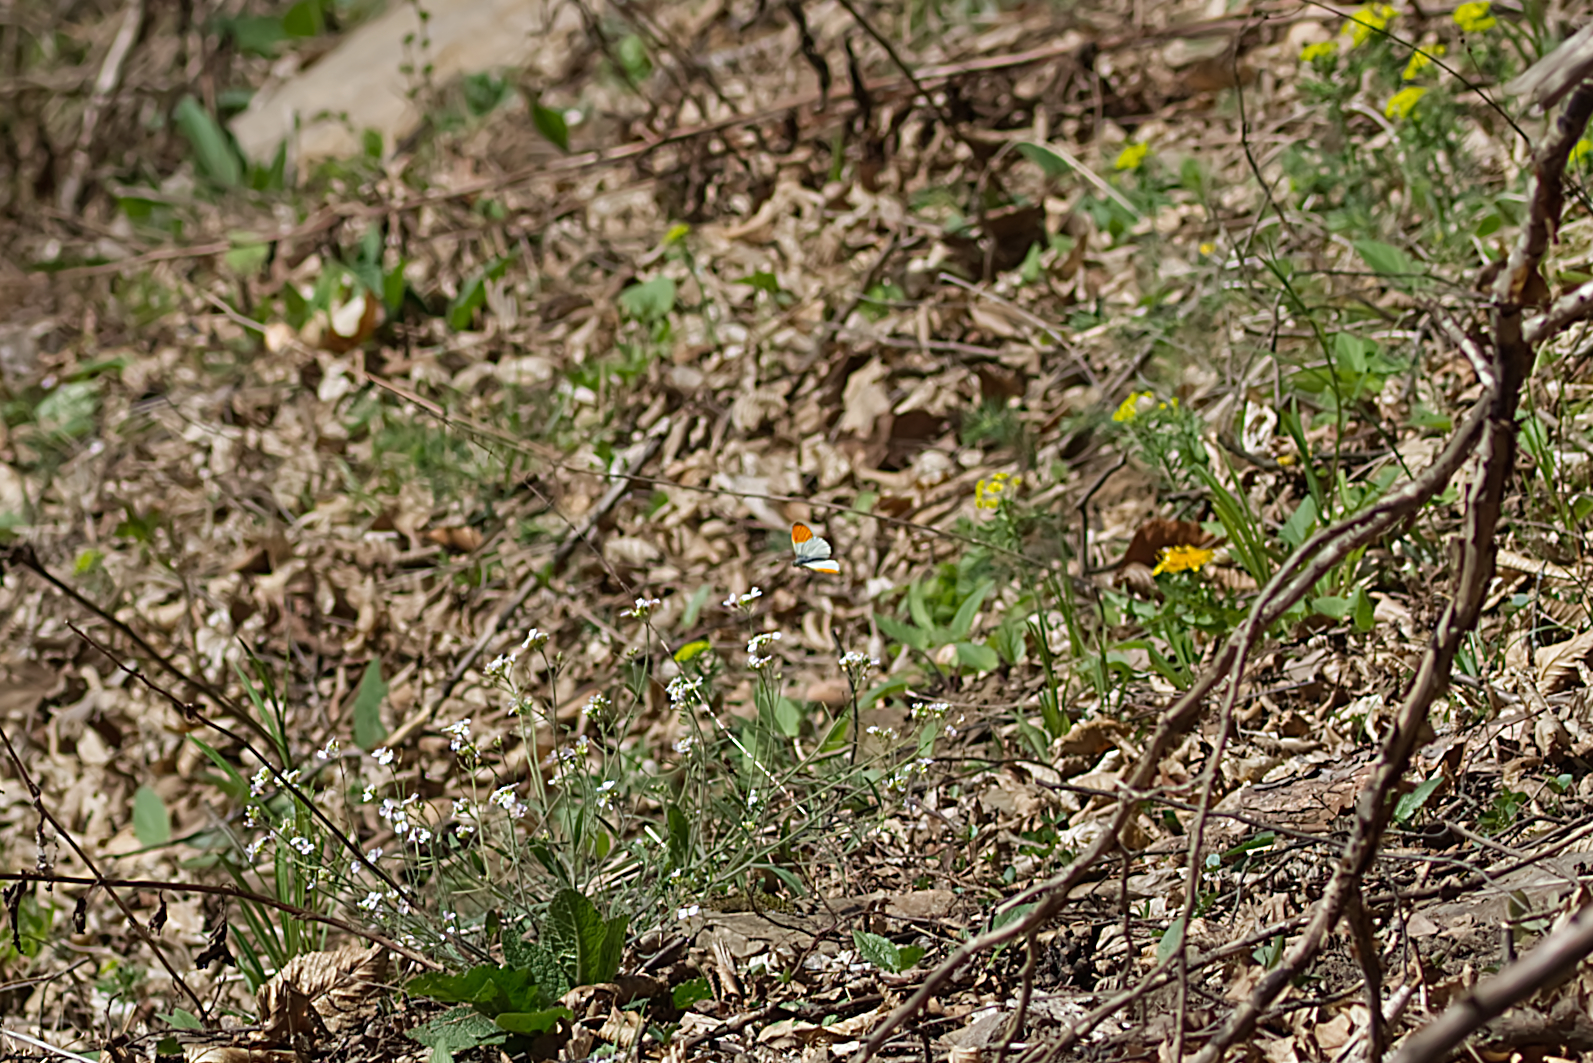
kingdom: Animalia
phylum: Arthropoda
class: Insecta
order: Lepidoptera
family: Pieridae
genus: Anthocharis
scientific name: Anthocharis cardamines
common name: Orange-tip
